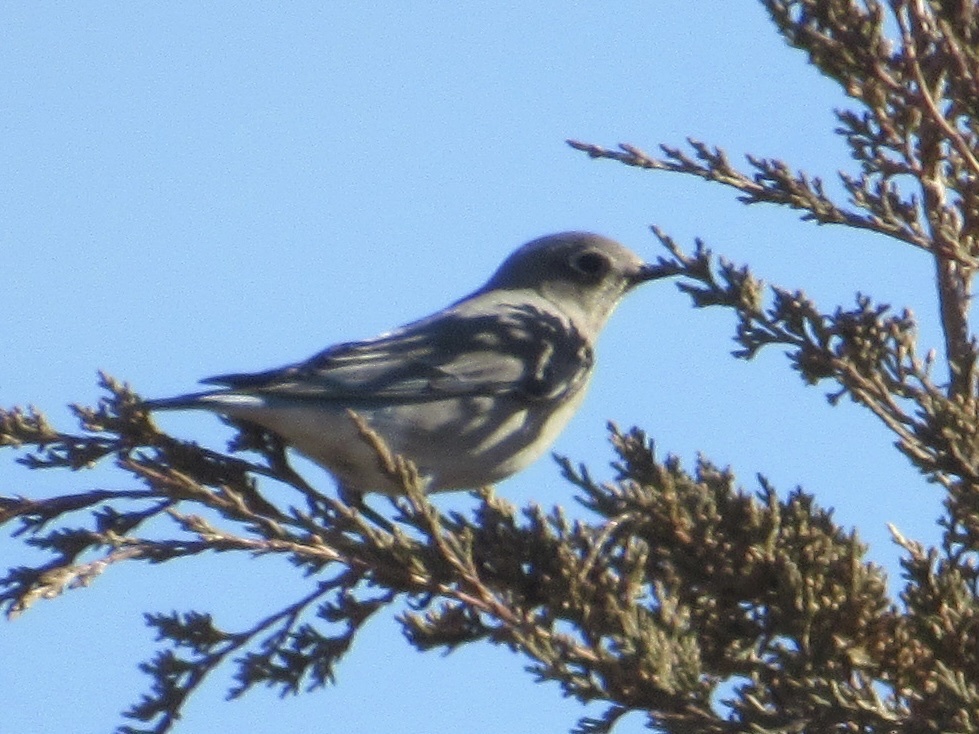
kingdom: Animalia
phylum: Chordata
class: Aves
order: Passeriformes
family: Turdidae
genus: Sialia
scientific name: Sialia currucoides
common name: Mountain bluebird
